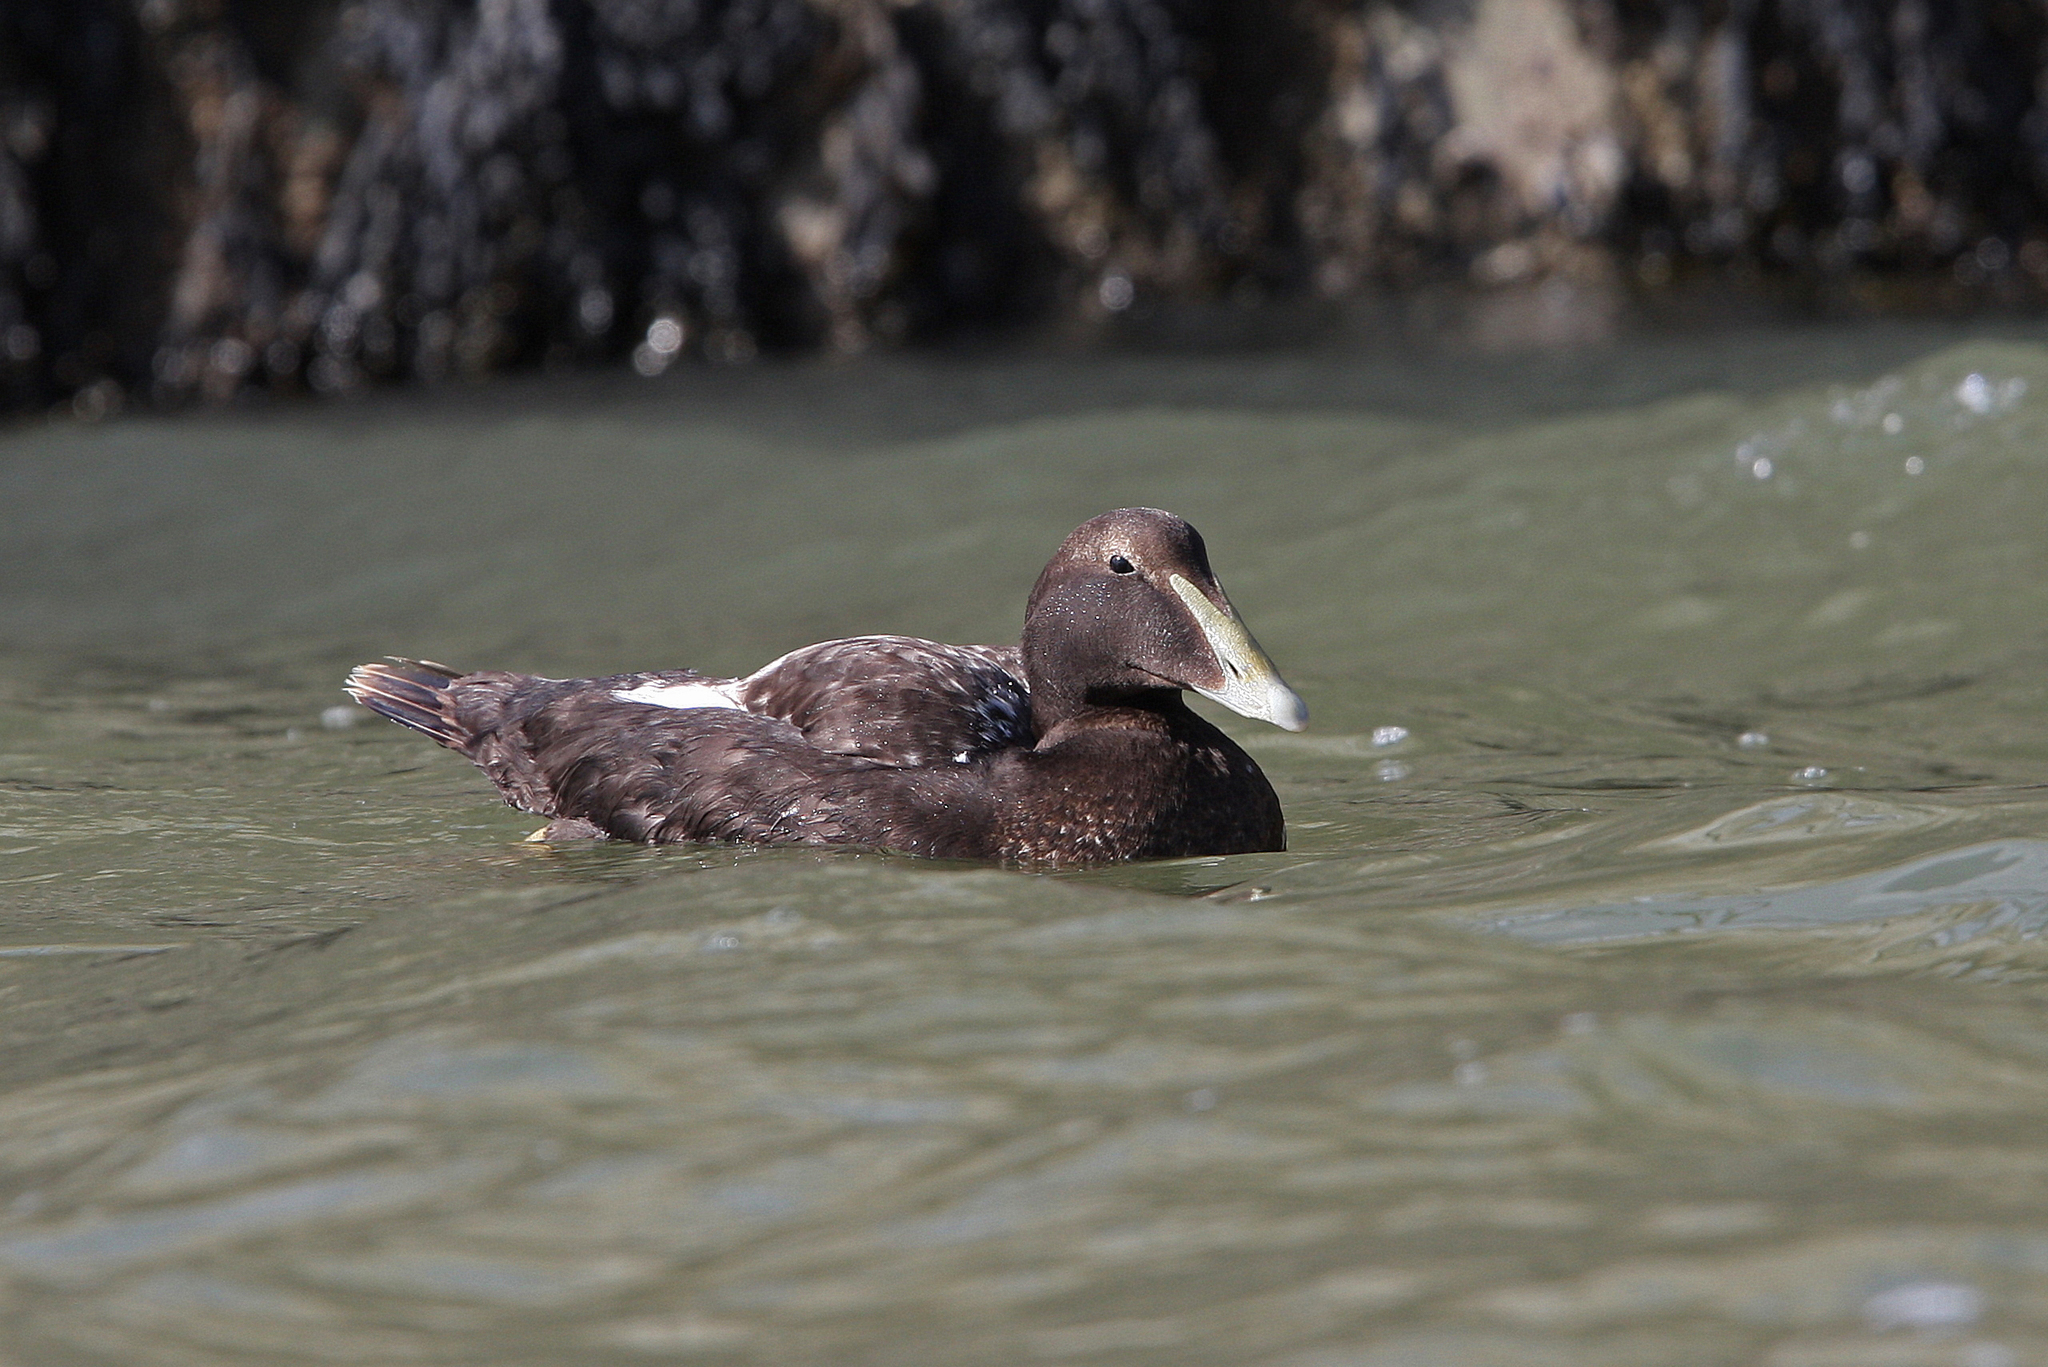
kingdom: Animalia
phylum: Chordata
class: Aves
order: Anseriformes
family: Anatidae
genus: Somateria
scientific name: Somateria mollissima
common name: Common eider
